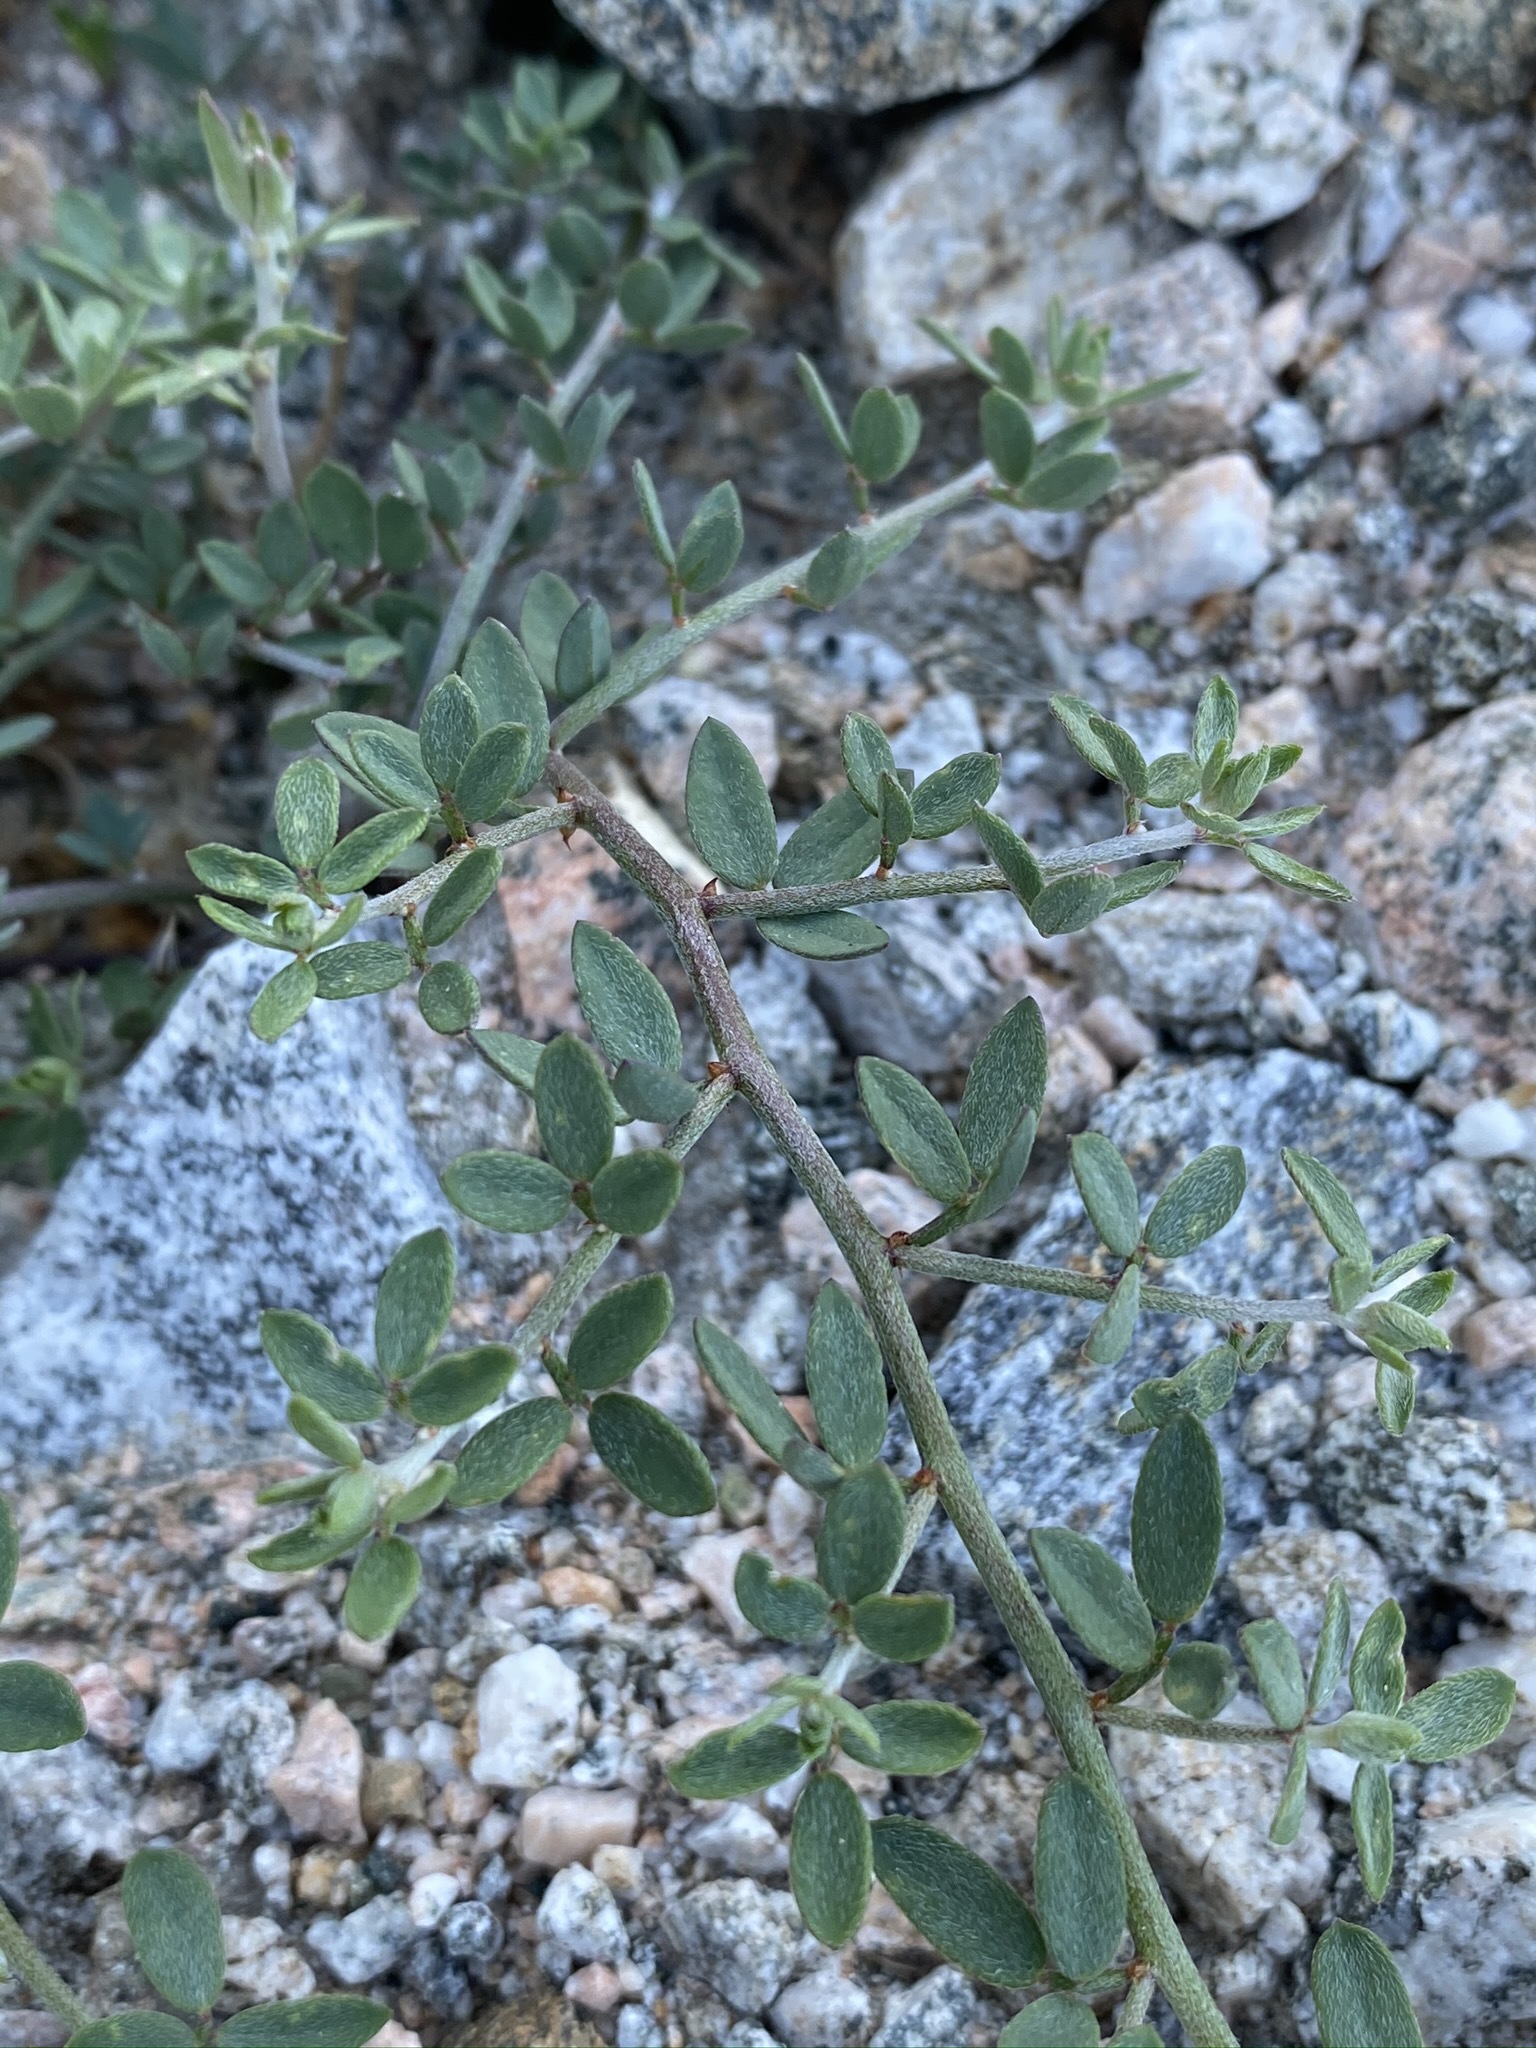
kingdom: Plantae
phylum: Tracheophyta
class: Magnoliopsida
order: Fabales
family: Fabaceae
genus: Acmispon
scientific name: Acmispon rigidus
